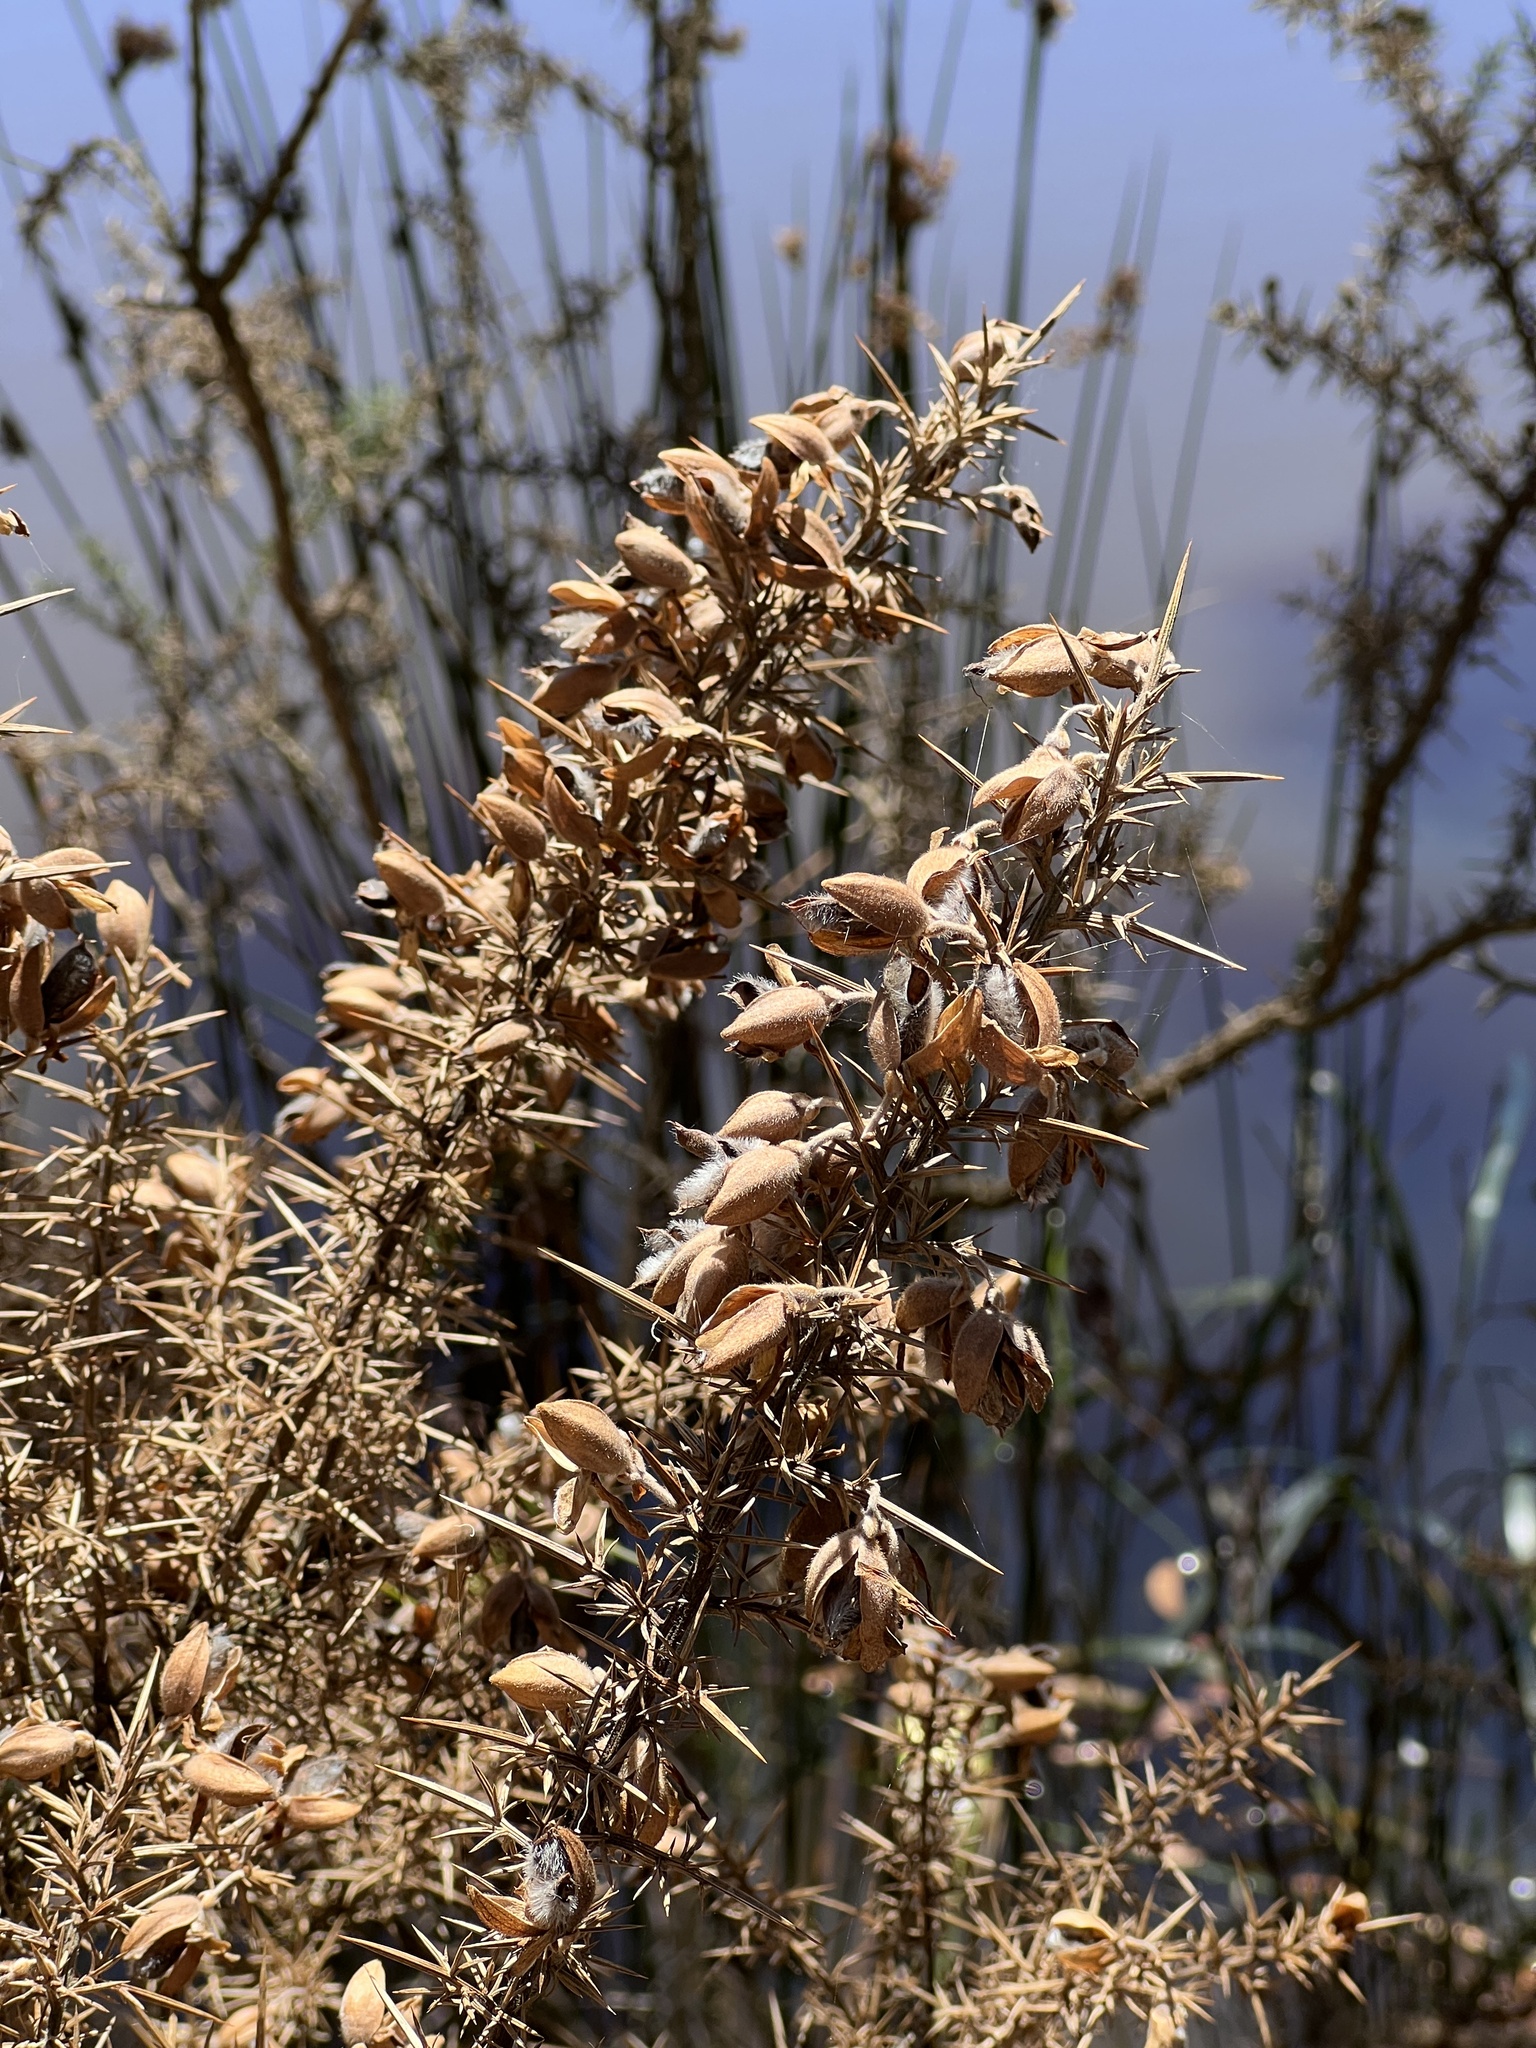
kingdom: Plantae
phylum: Tracheophyta
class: Magnoliopsida
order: Fabales
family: Fabaceae
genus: Ulex
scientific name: Ulex europaeus
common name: Common gorse
